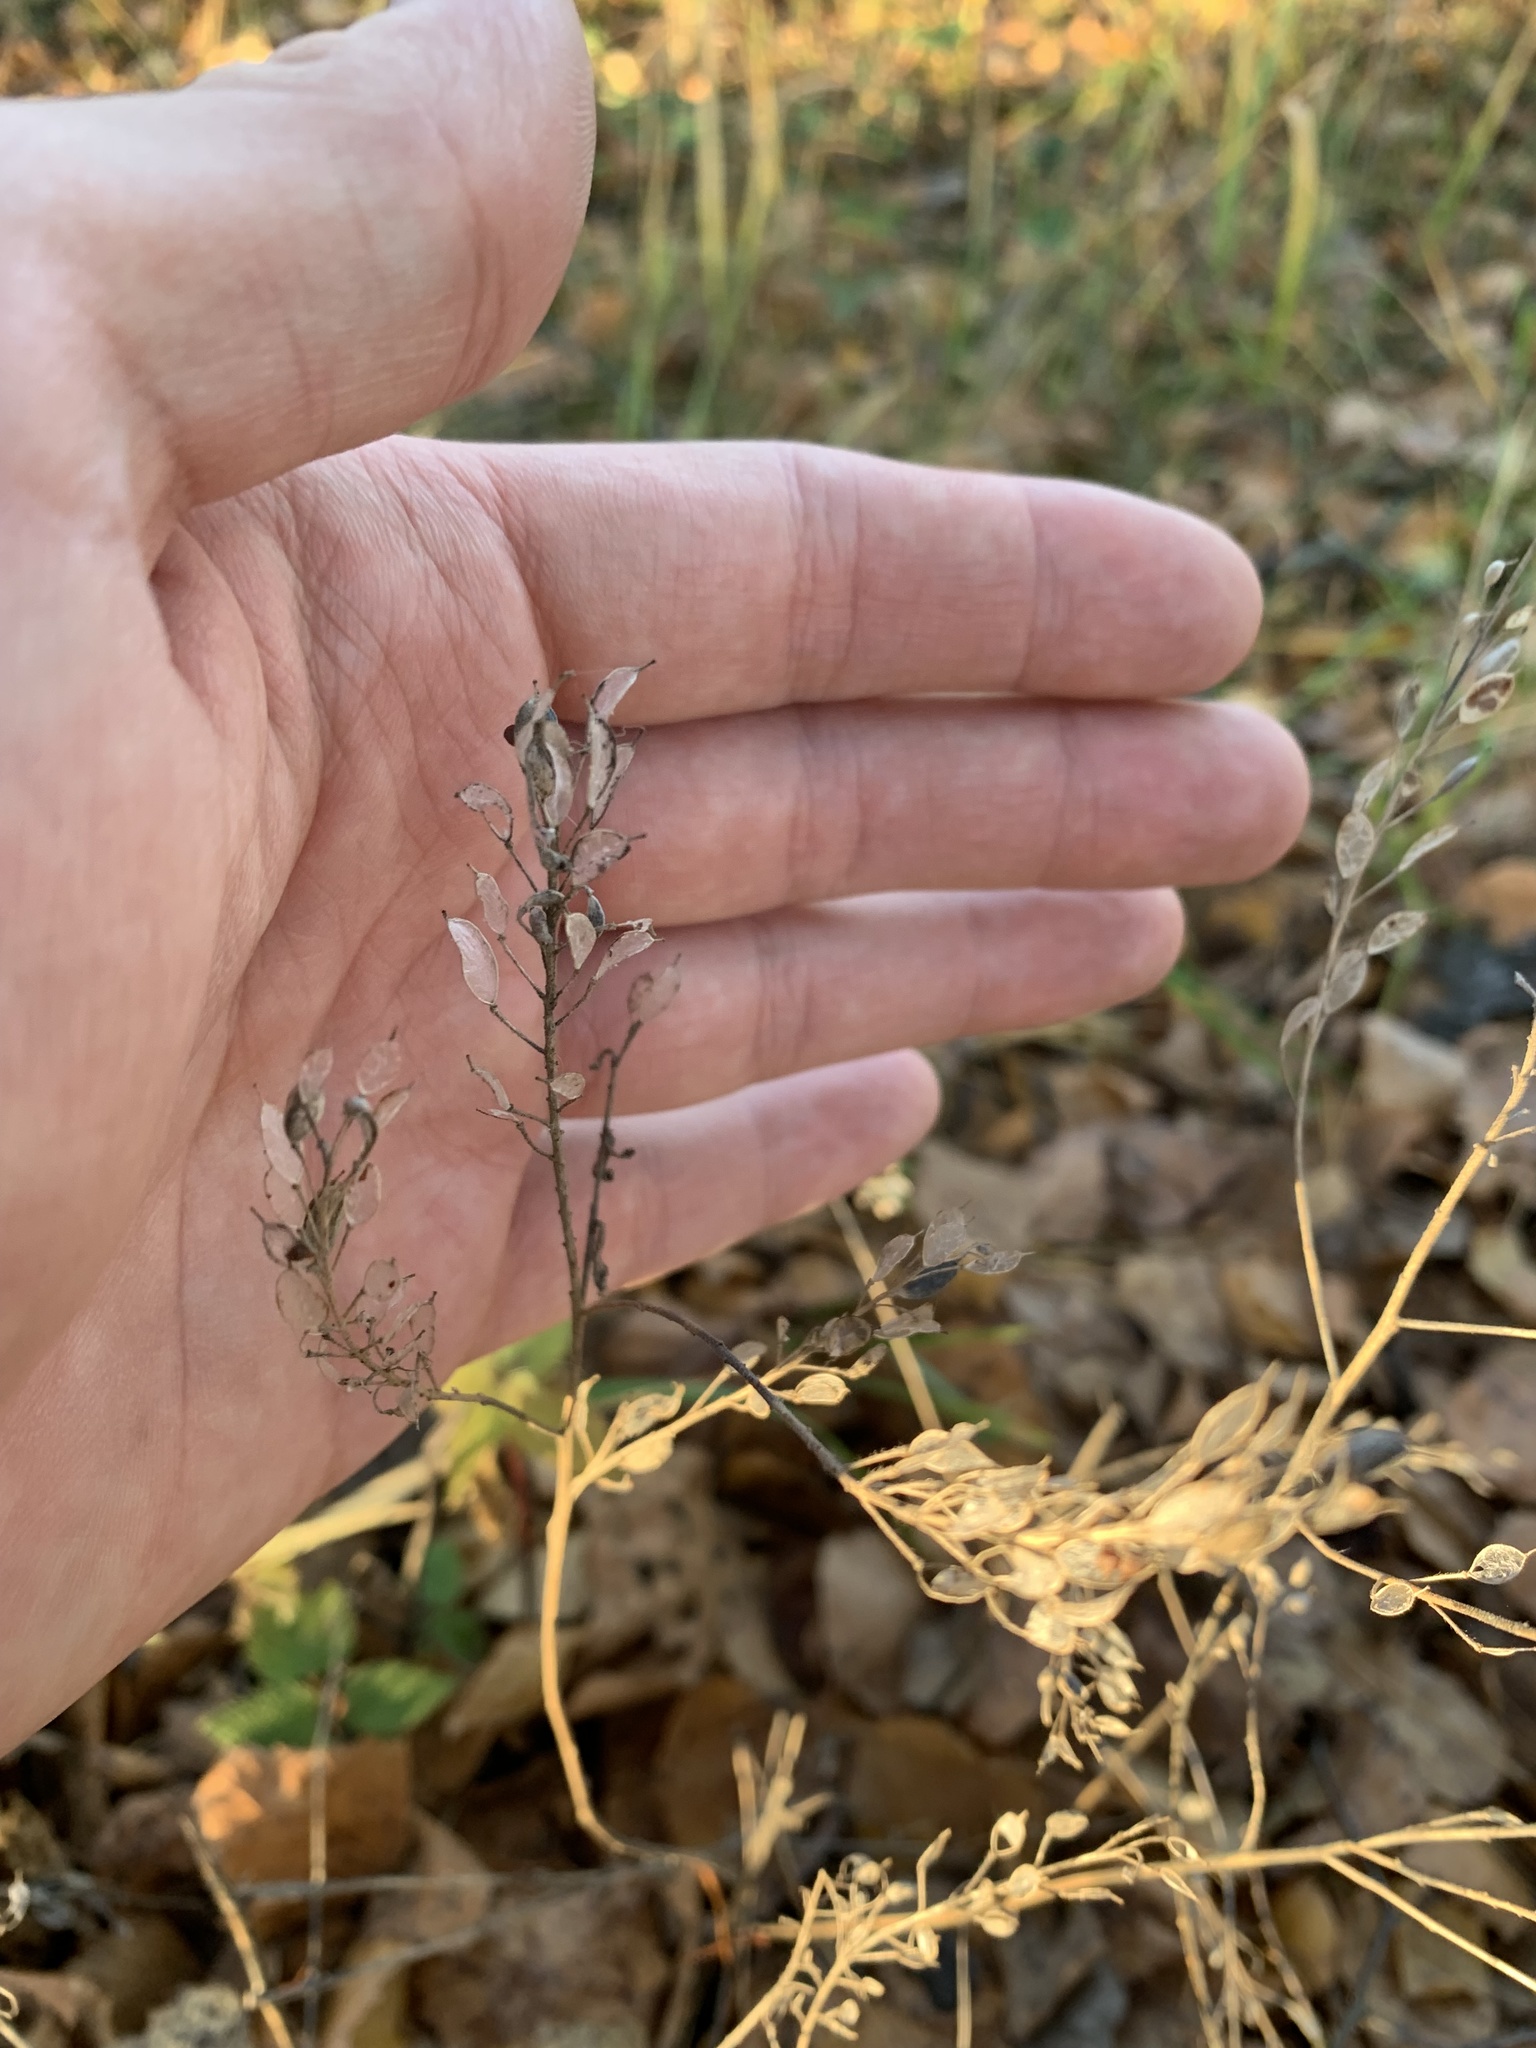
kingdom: Plantae
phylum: Tracheophyta
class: Magnoliopsida
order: Brassicales
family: Brassicaceae
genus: Berteroa
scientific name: Berteroa incana
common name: Hoary alison
